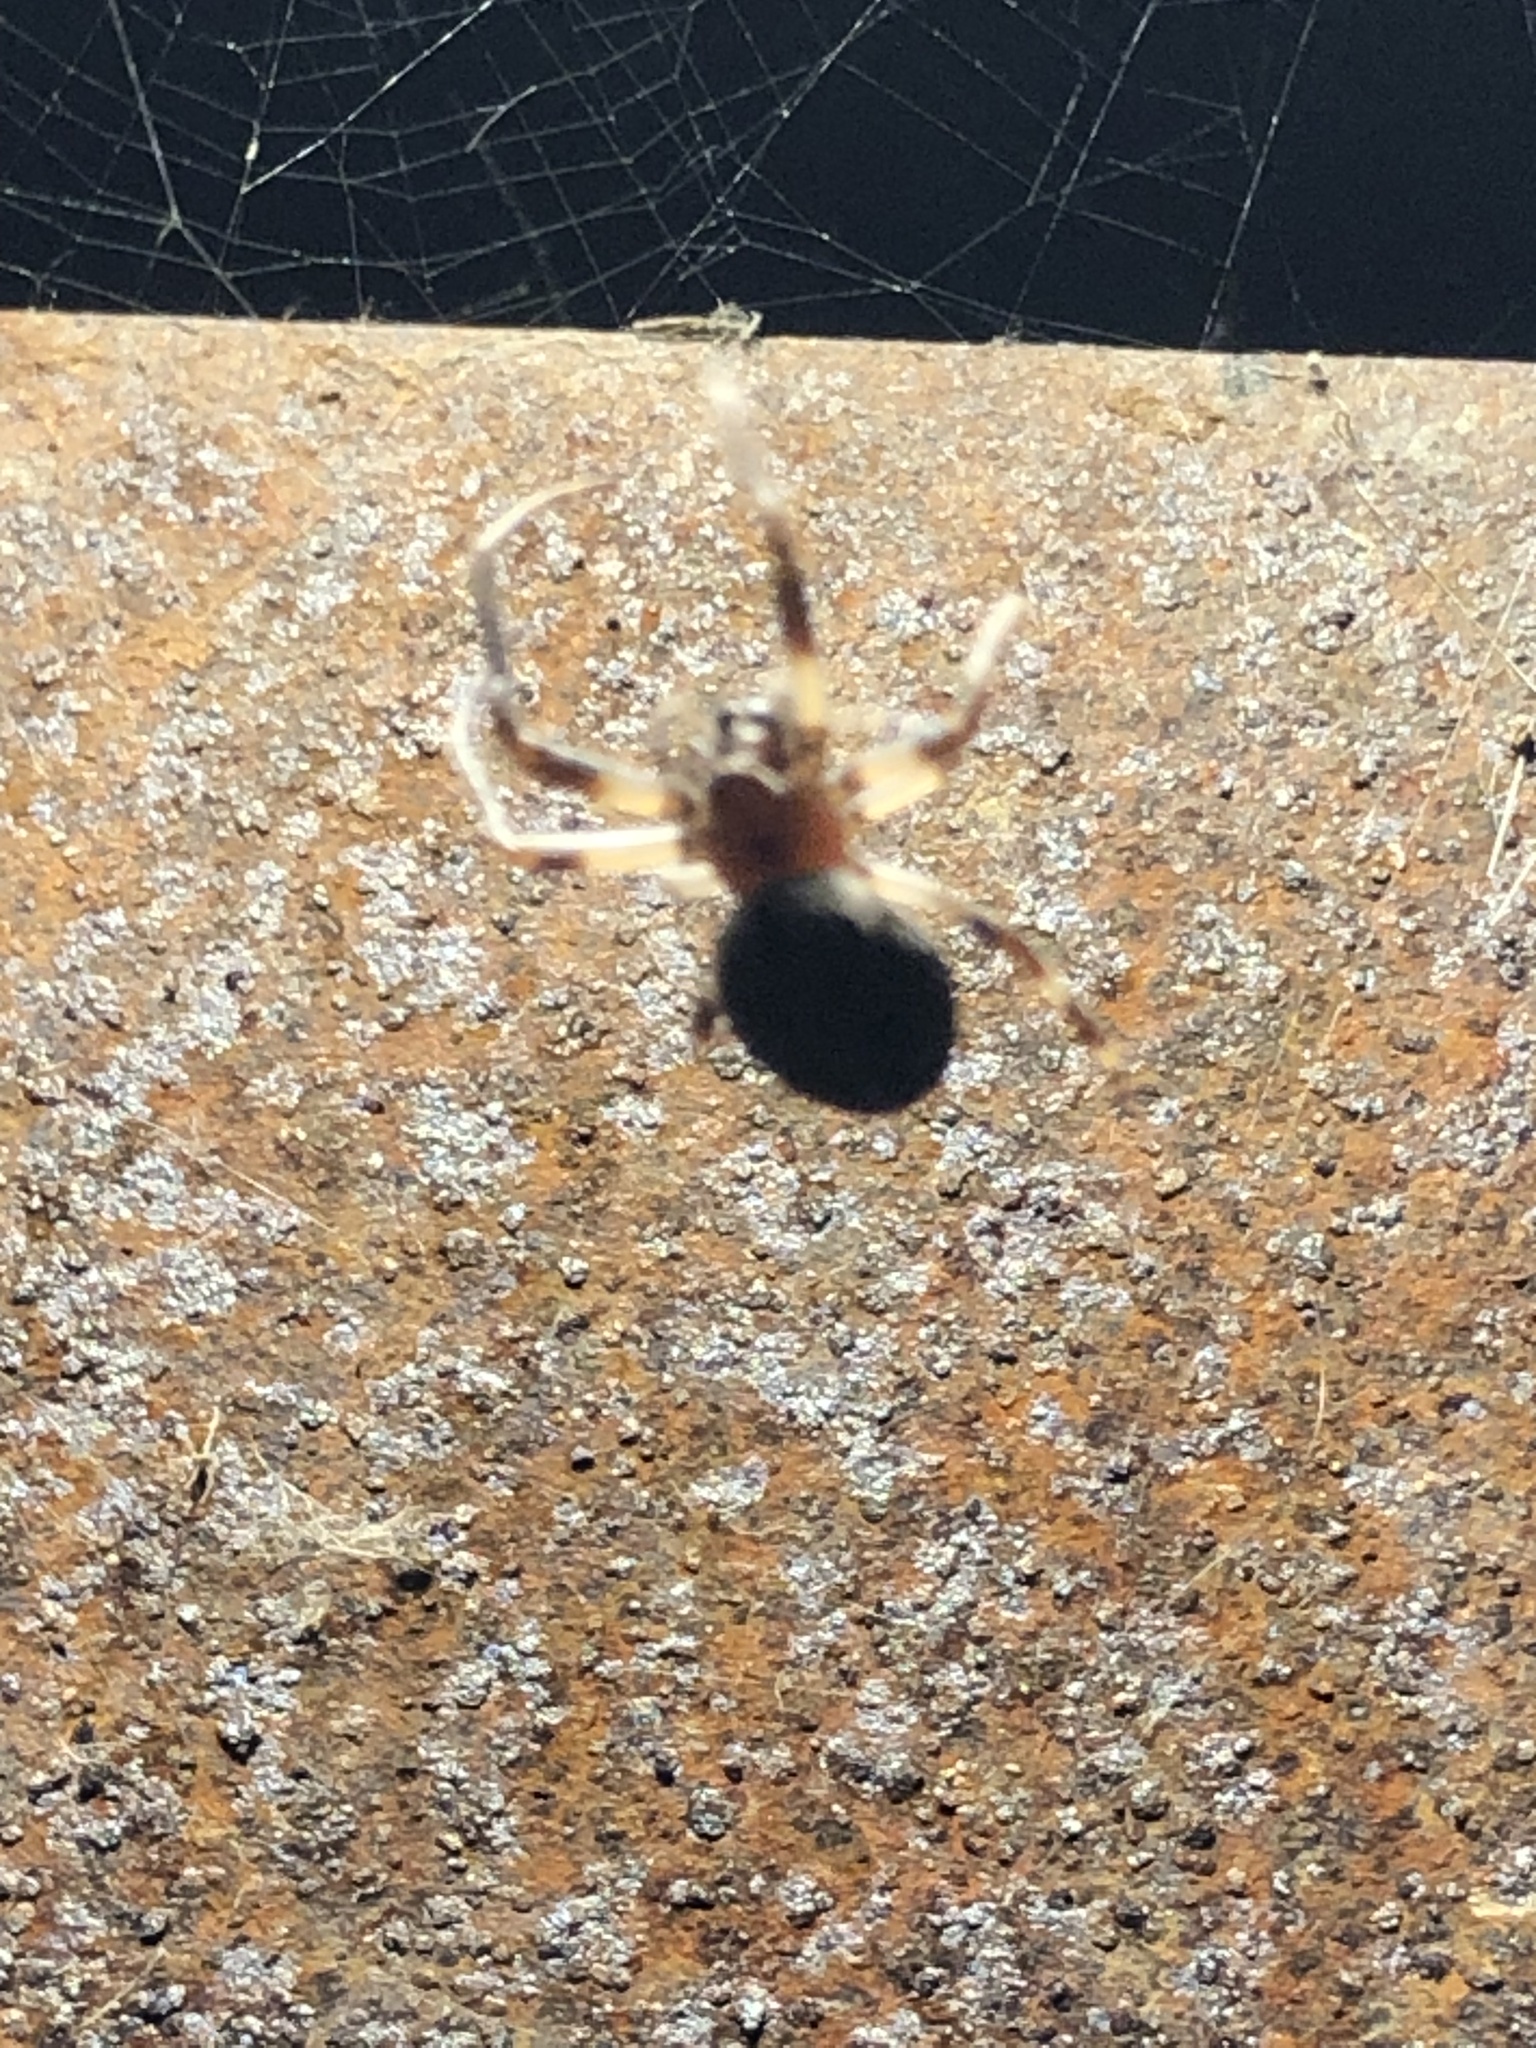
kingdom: Animalia
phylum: Arthropoda
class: Arachnida
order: Araneae
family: Araneidae
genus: Larinioides
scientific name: Larinioides sclopetarius
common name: Bridge orbweaver
